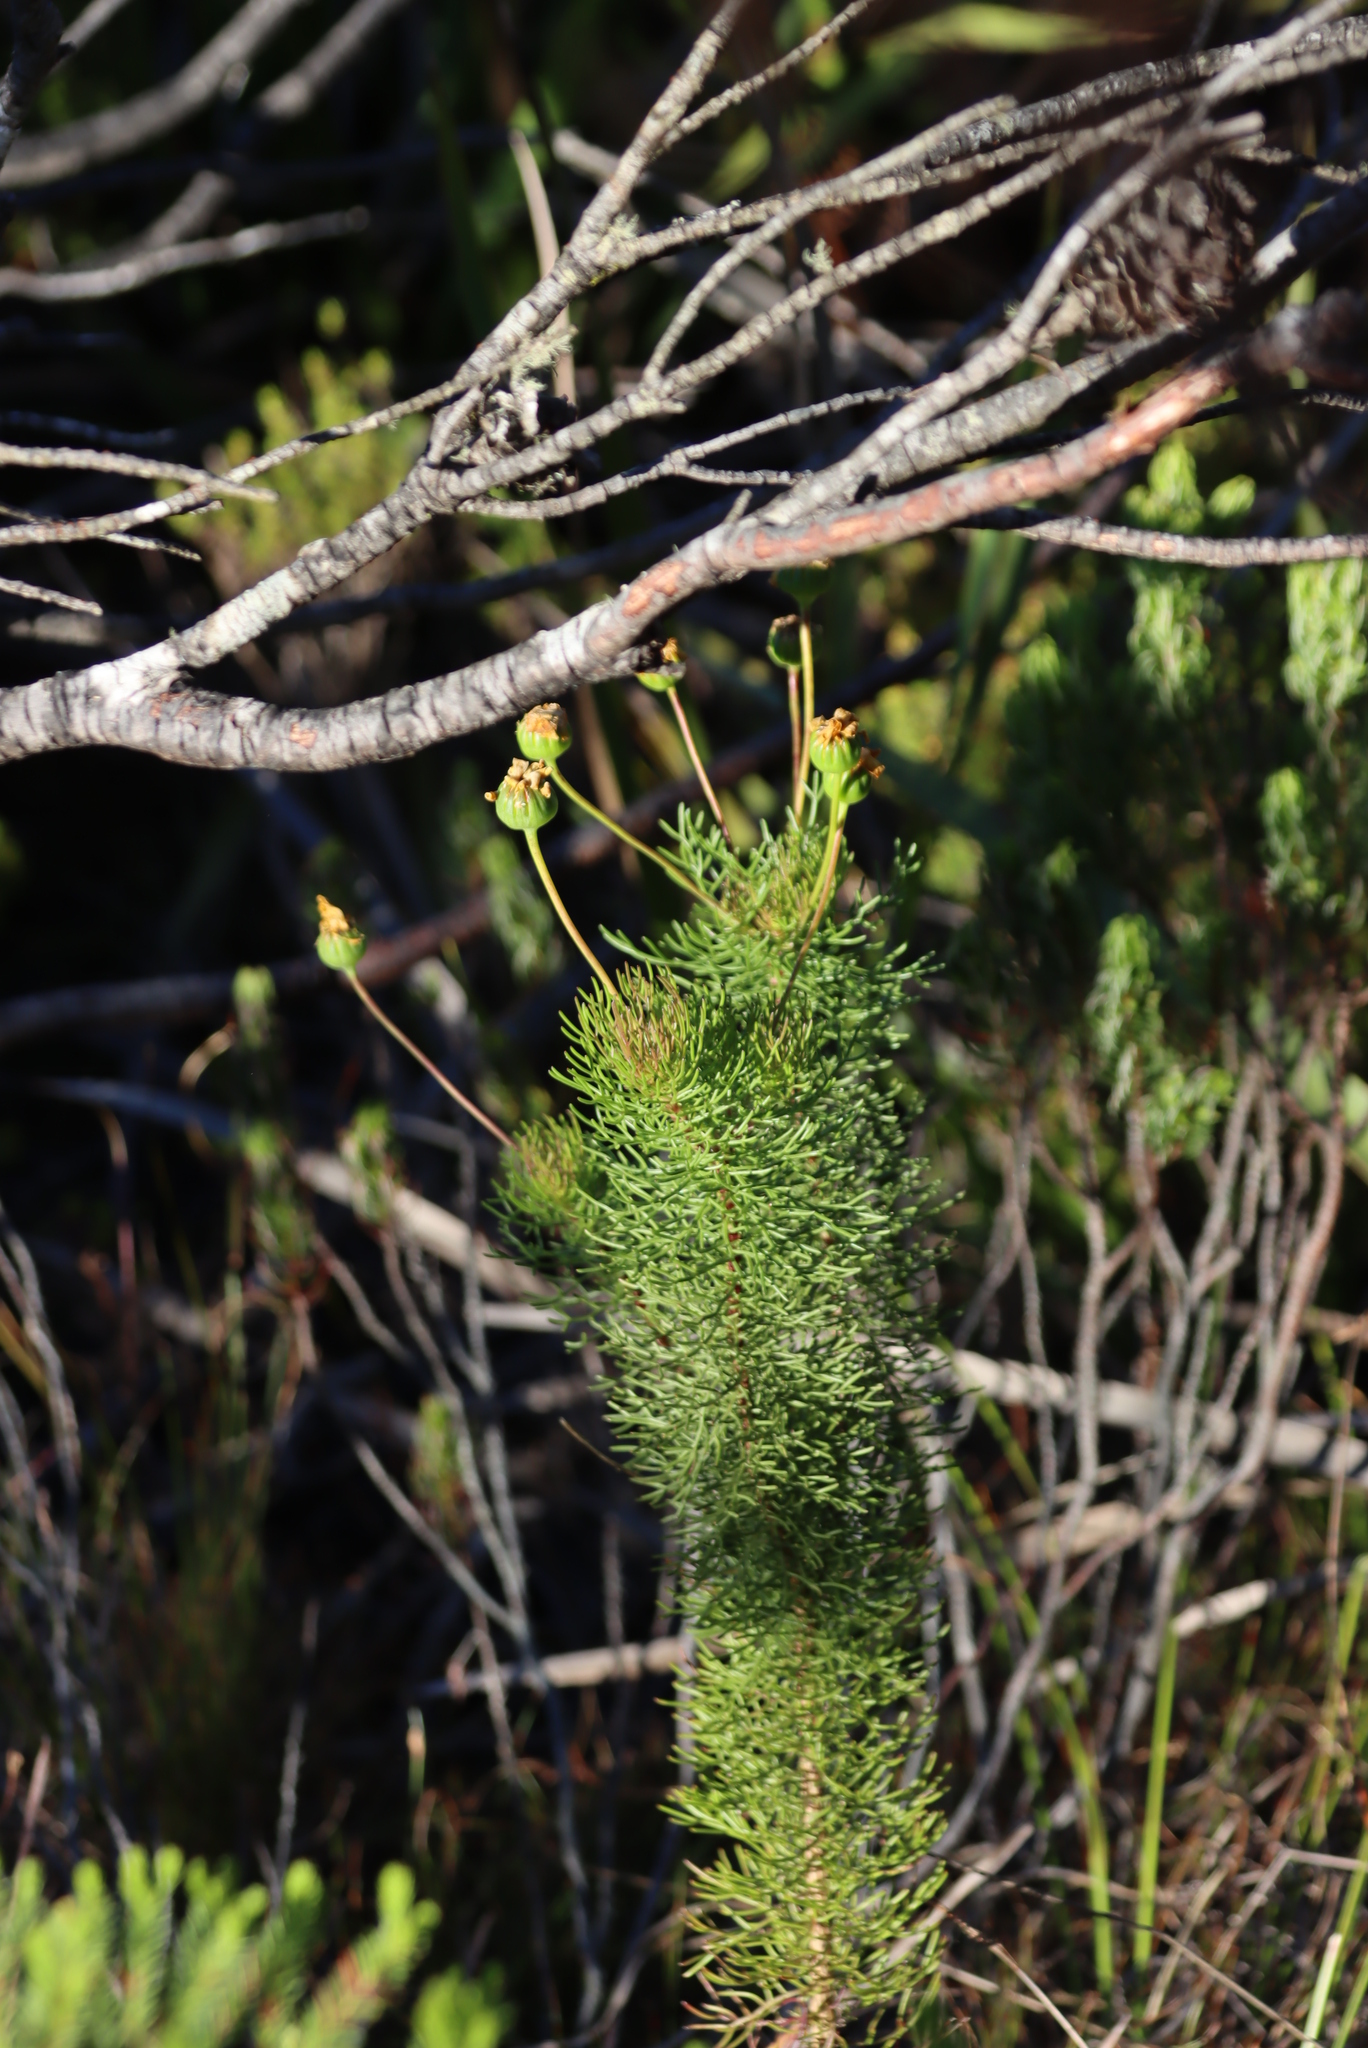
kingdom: Plantae
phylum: Tracheophyta
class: Magnoliopsida
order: Asterales
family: Asteraceae
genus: Euryops
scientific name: Euryops abrotanifolius
